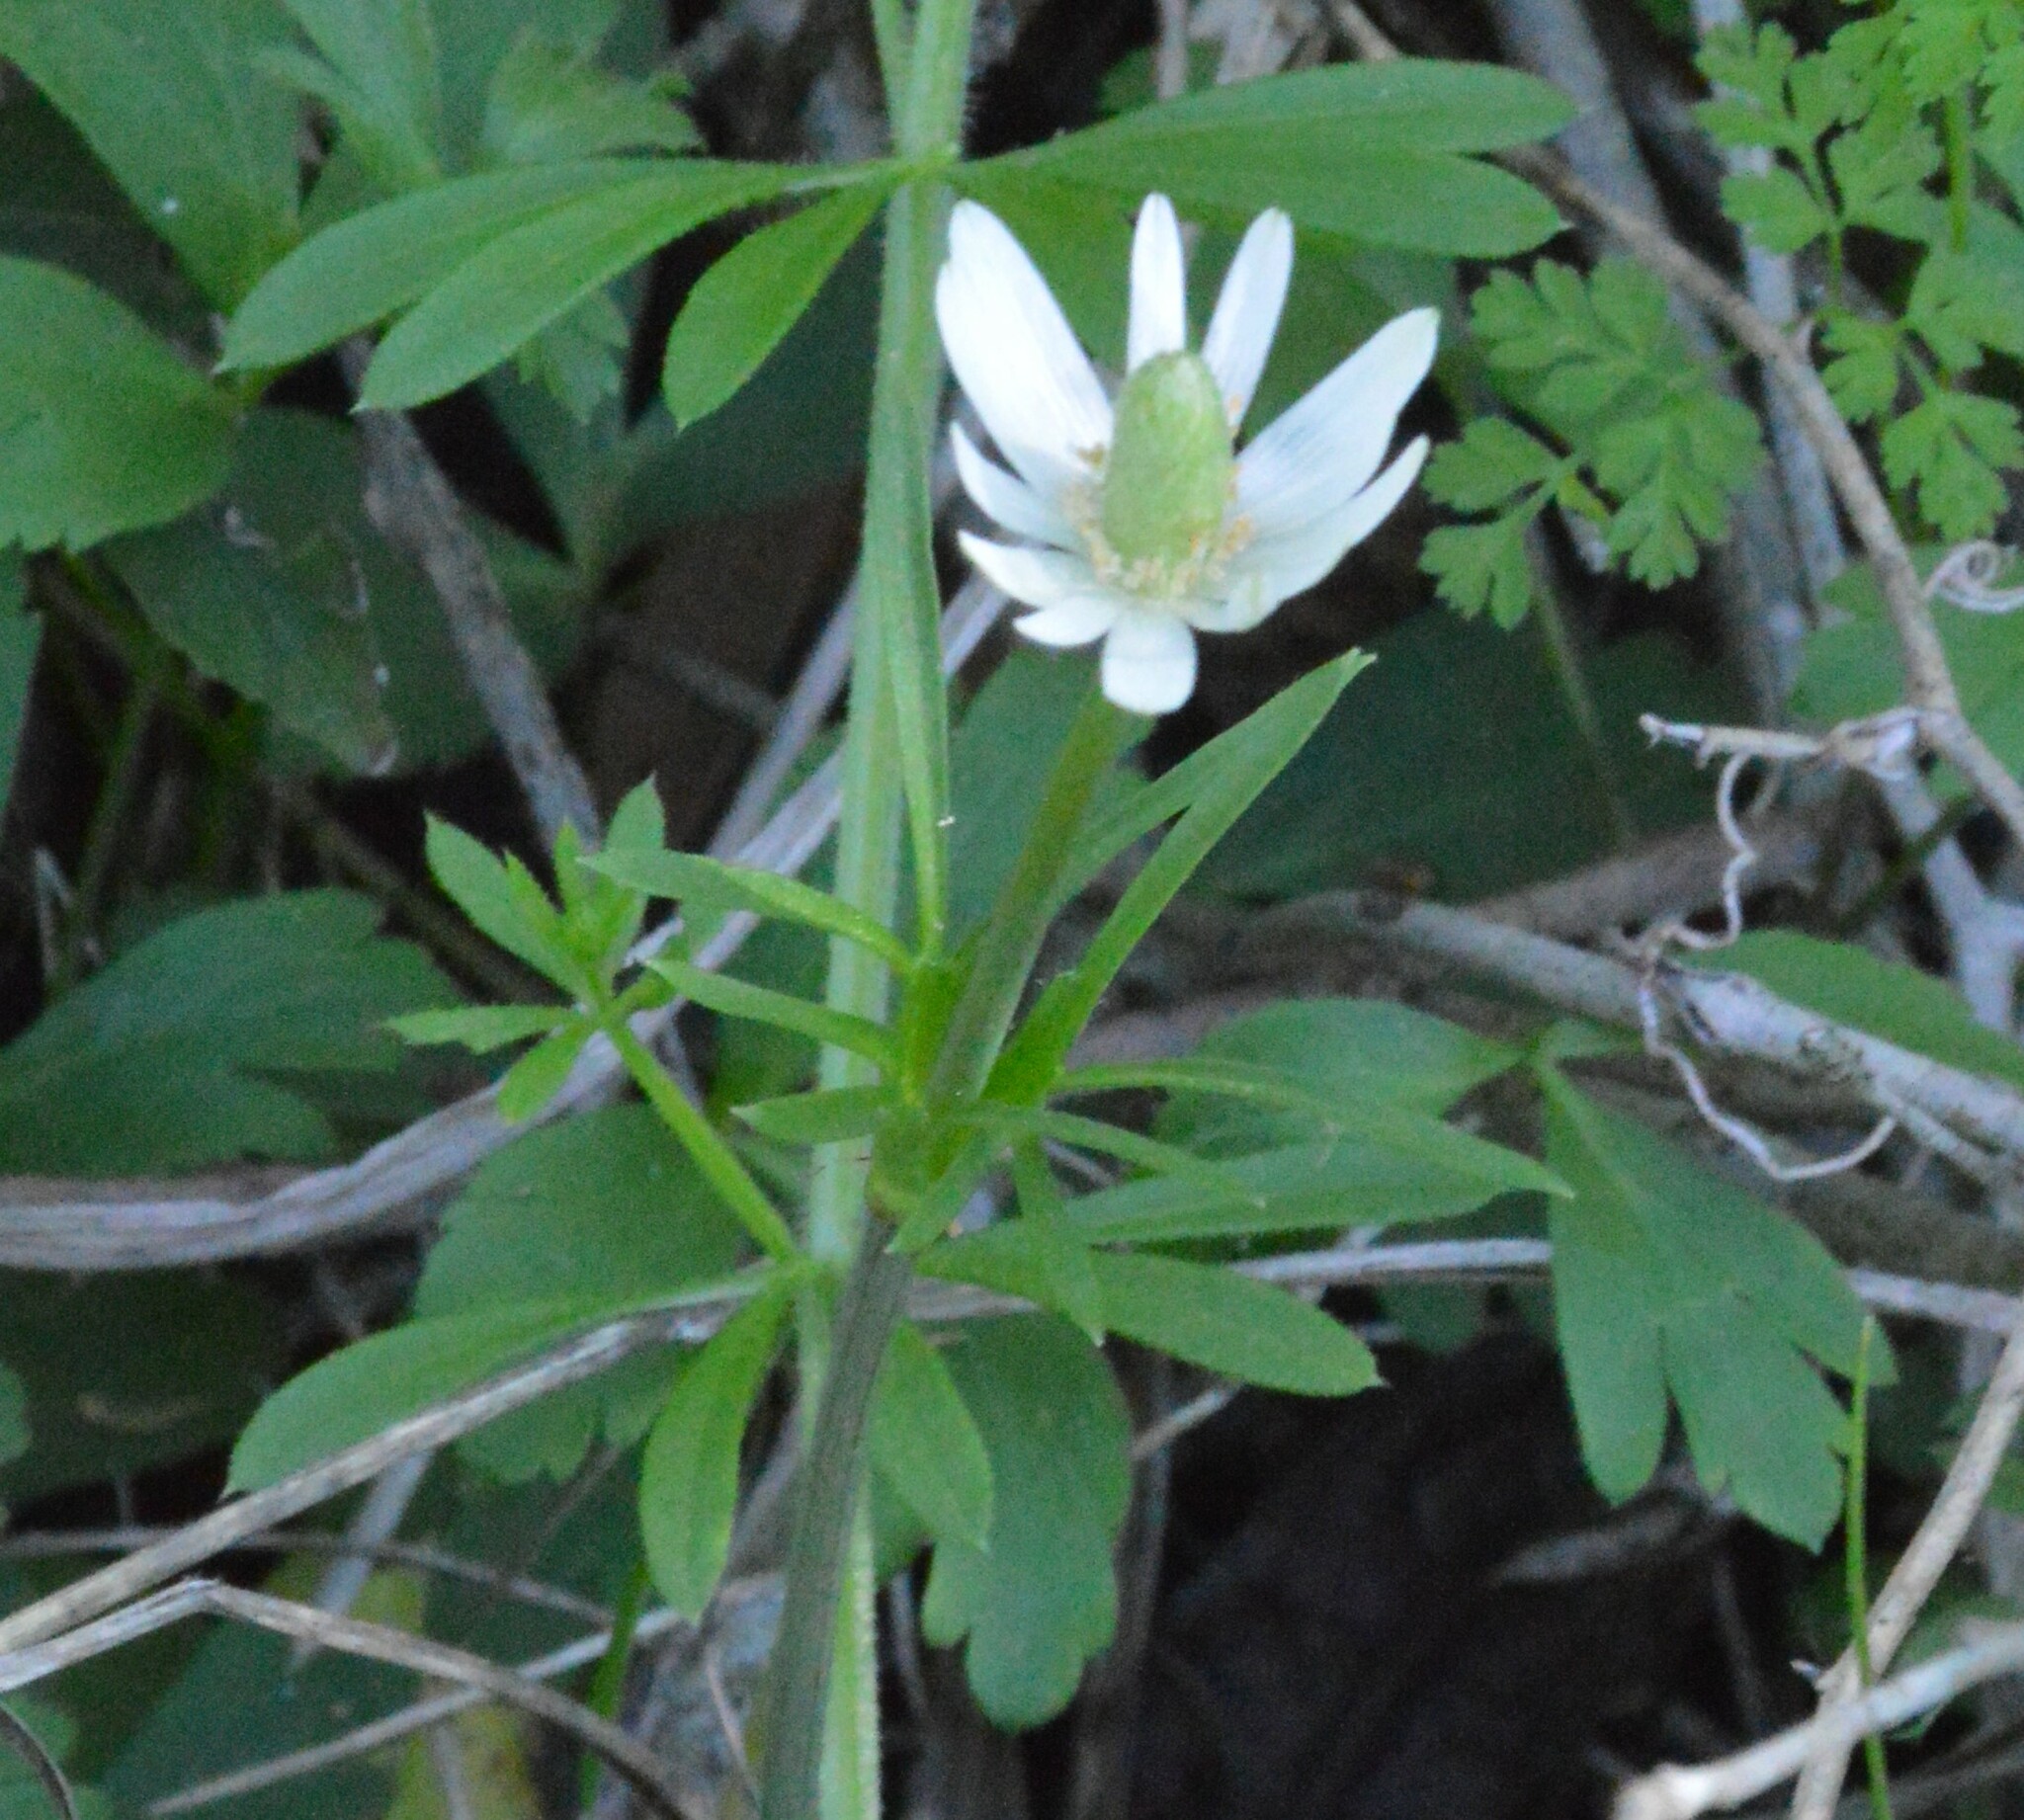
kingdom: Plantae
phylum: Tracheophyta
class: Magnoliopsida
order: Ranunculales
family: Ranunculaceae
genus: Anemone
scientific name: Anemone berlandieri
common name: Ten-petal anemone
